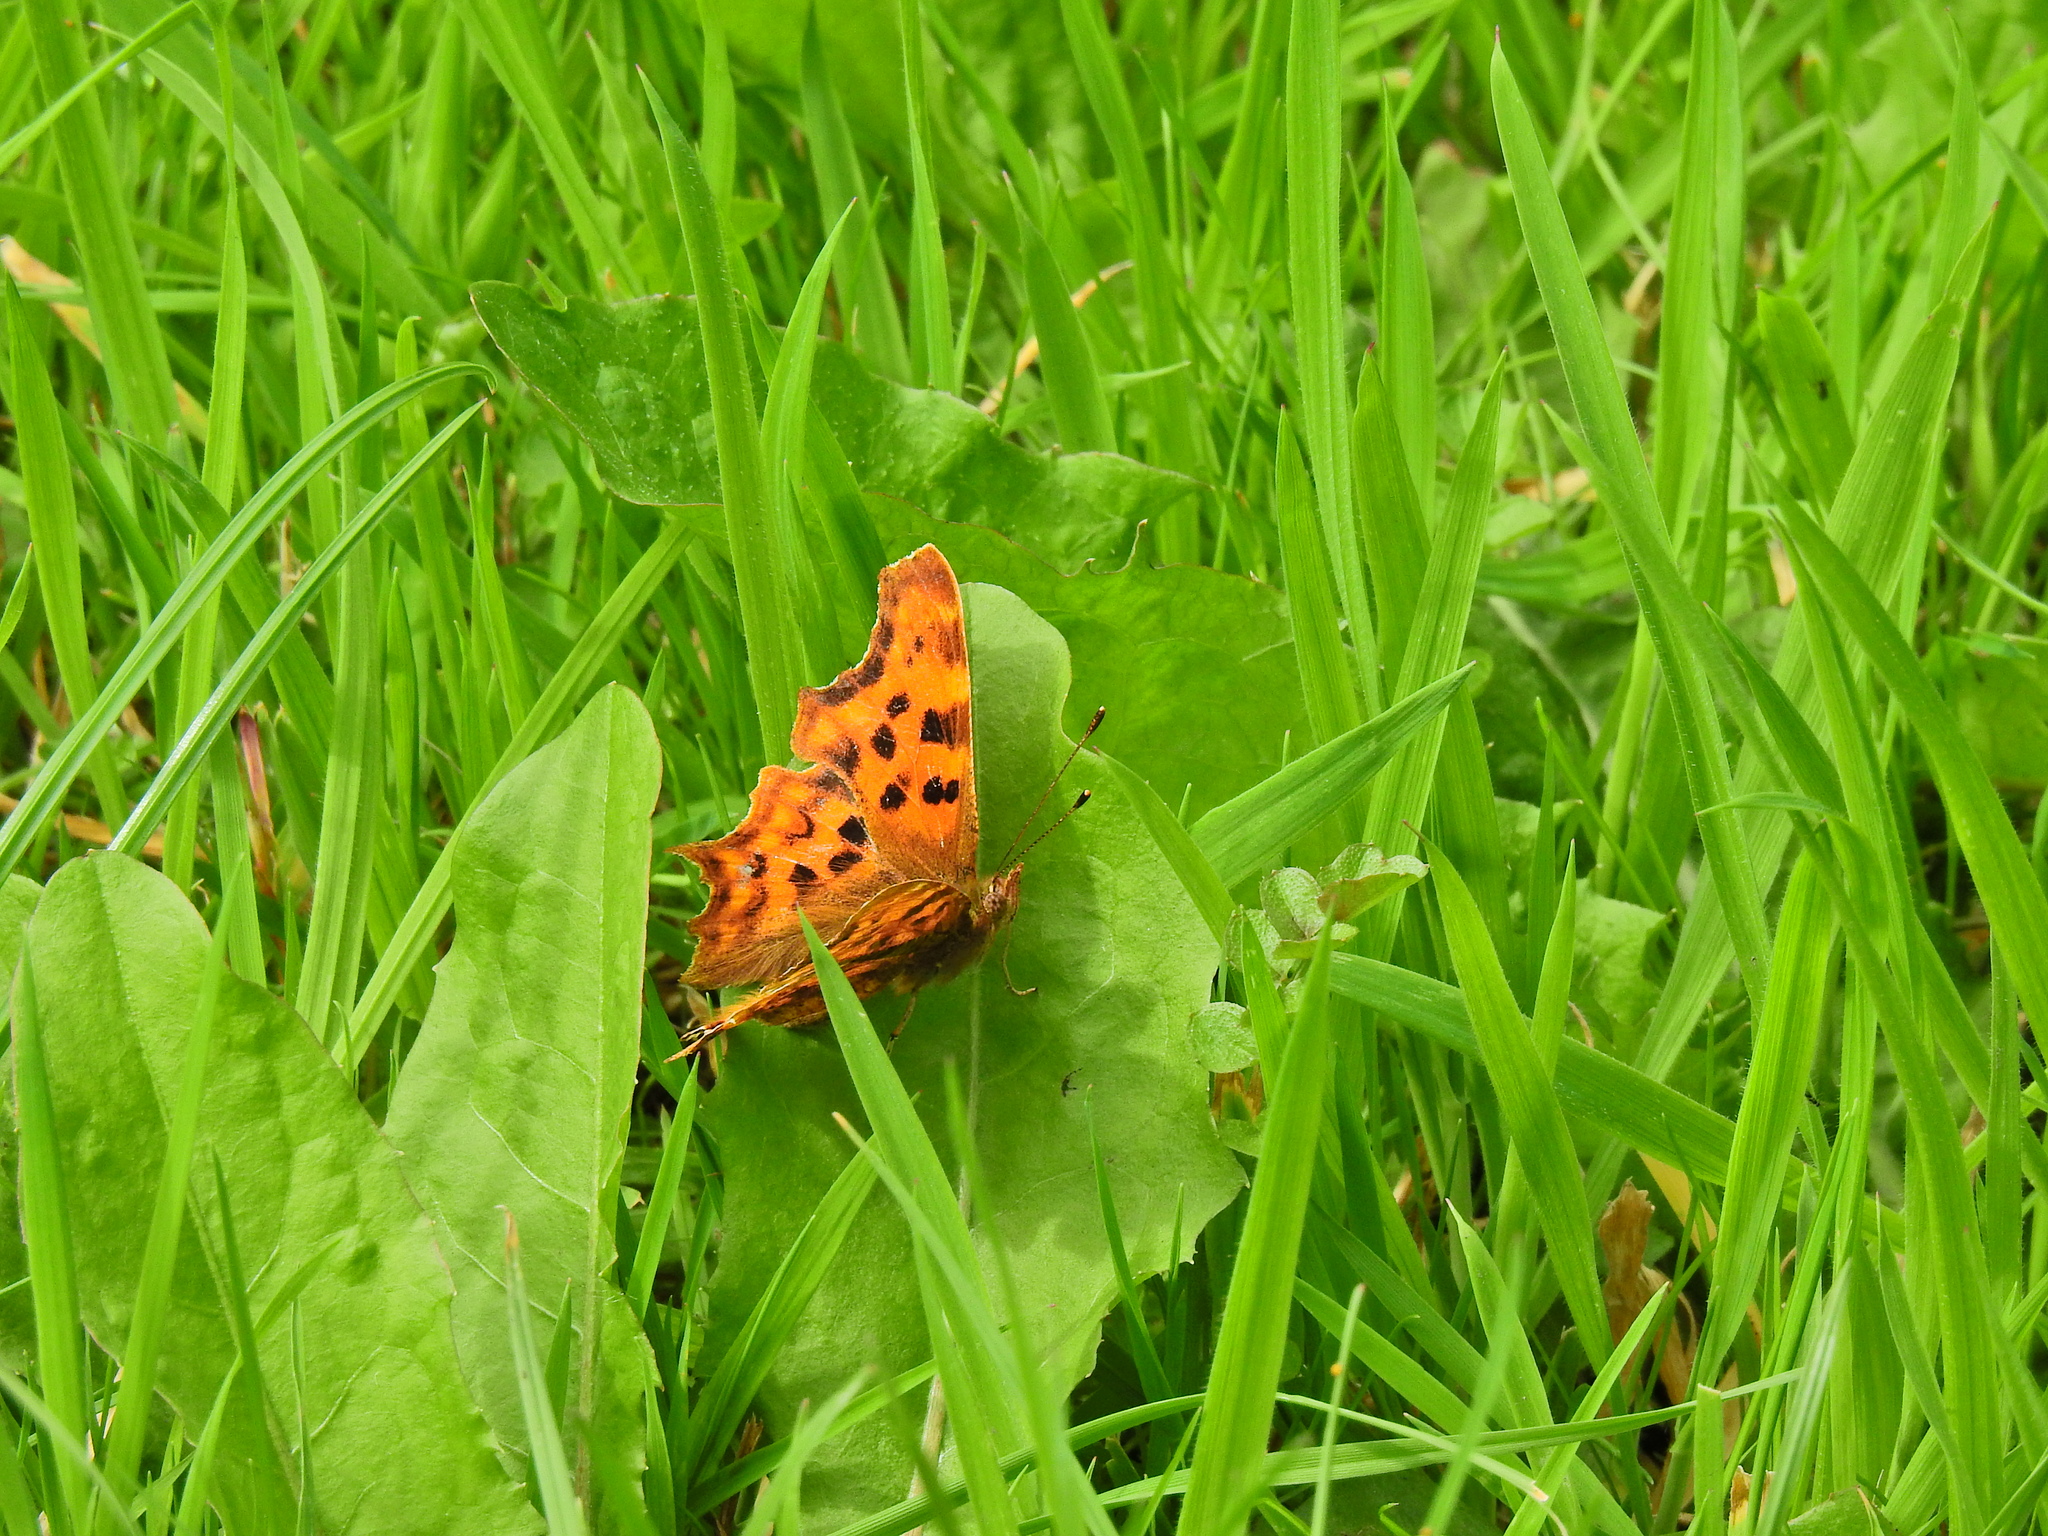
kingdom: Animalia
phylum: Arthropoda
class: Insecta
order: Lepidoptera
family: Nymphalidae
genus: Polygonia
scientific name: Polygonia c-album
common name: Comma
